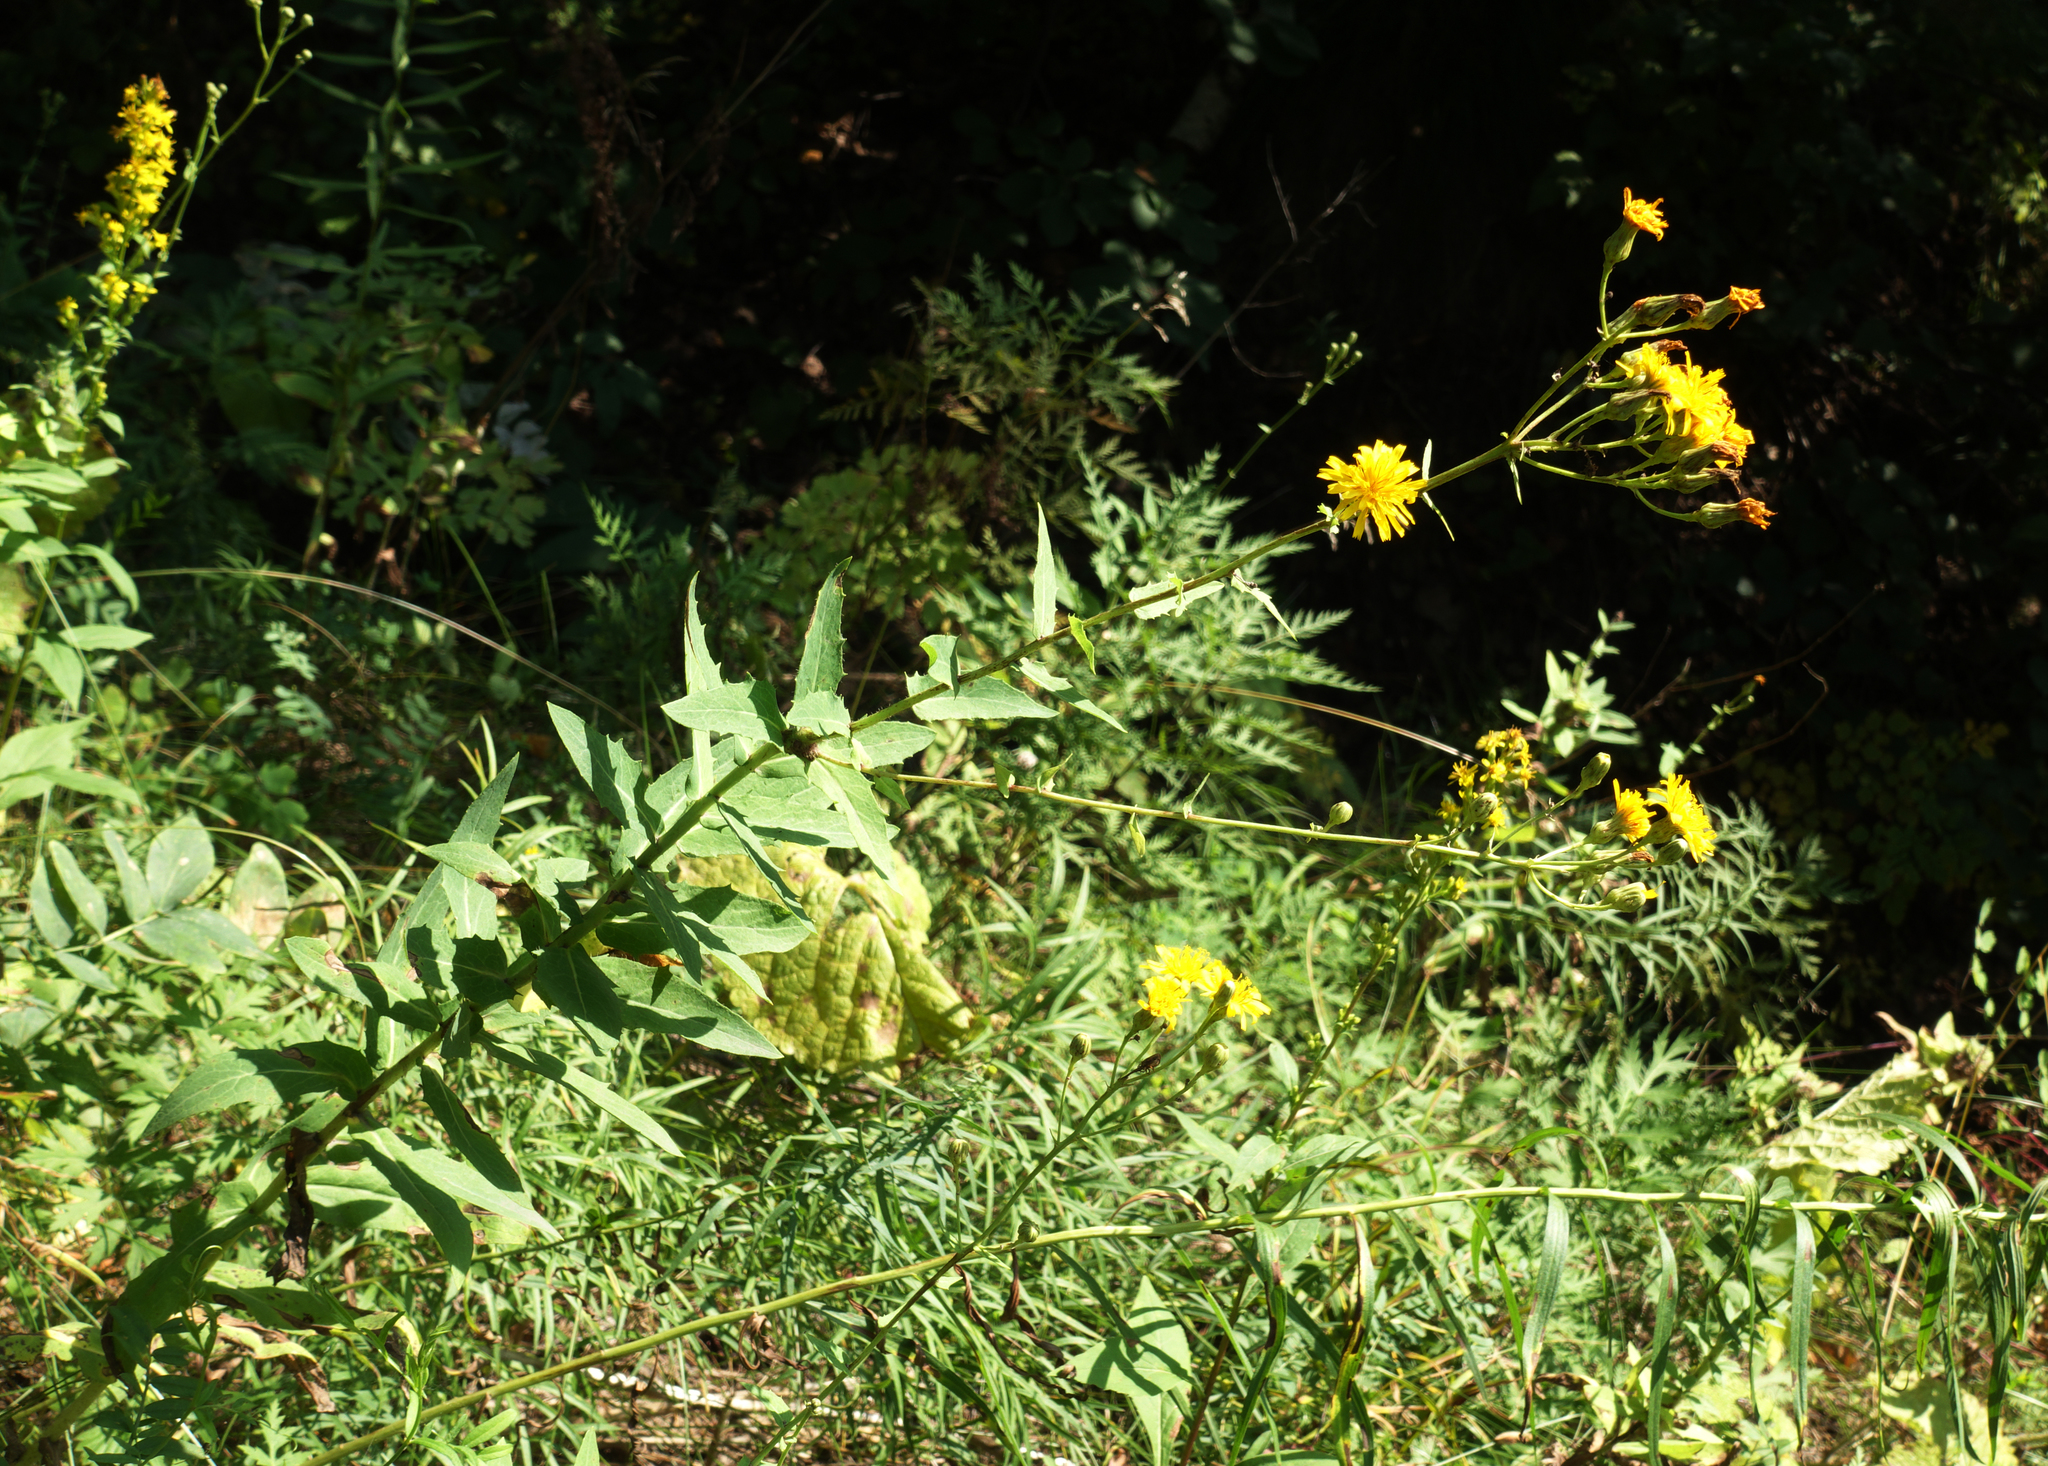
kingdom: Plantae
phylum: Tracheophyta
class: Magnoliopsida
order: Asterales
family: Asteraceae
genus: Hieracium
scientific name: Hieracium virosum
